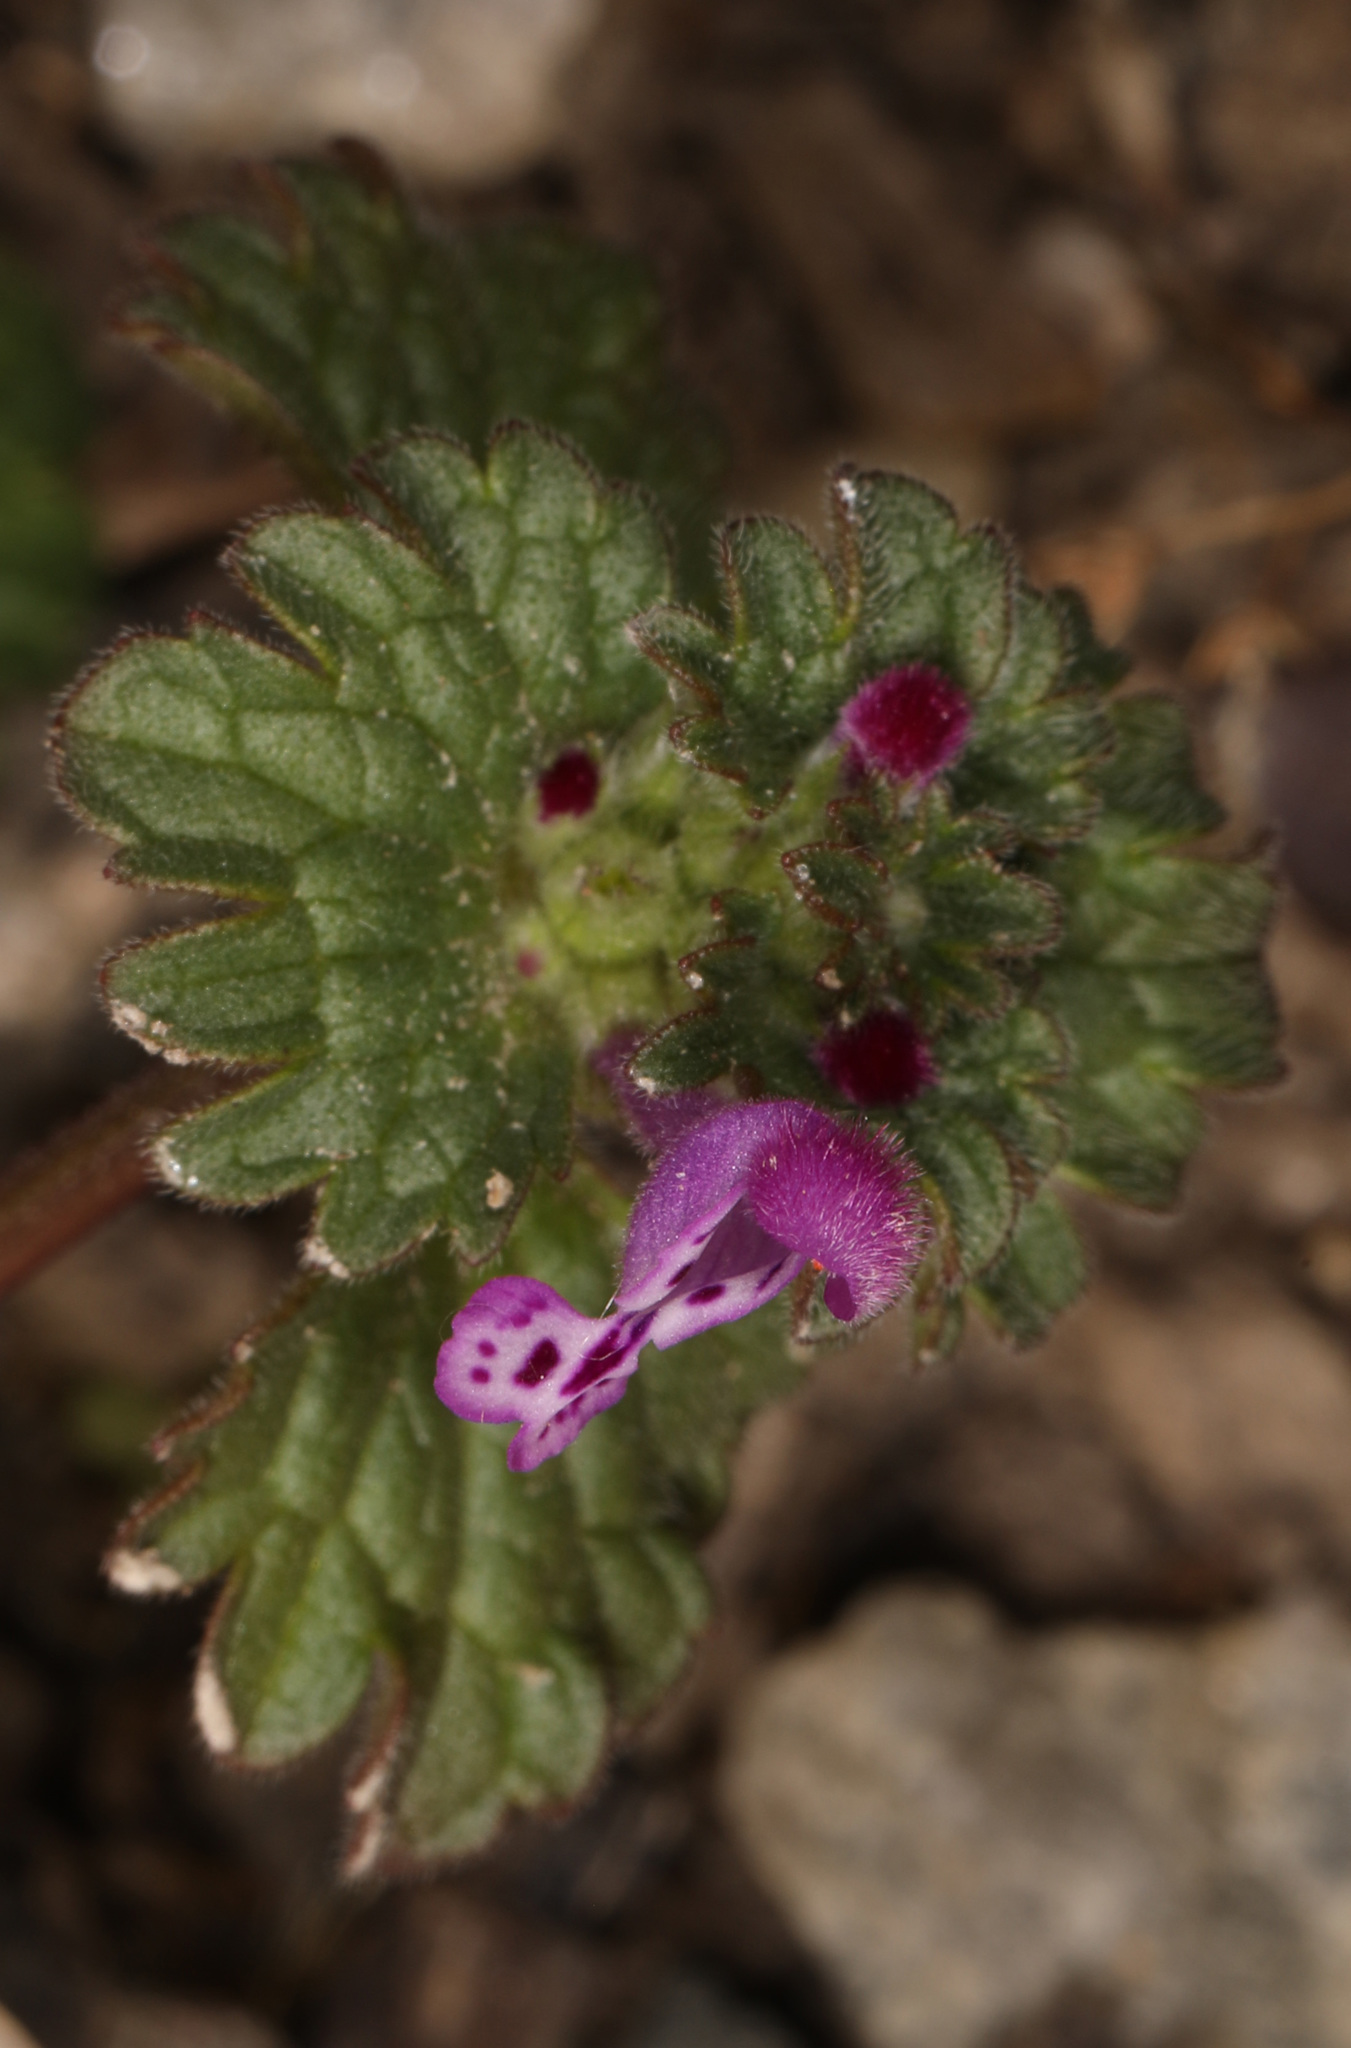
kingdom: Plantae
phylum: Tracheophyta
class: Magnoliopsida
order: Lamiales
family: Lamiaceae
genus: Lamium
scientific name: Lamium amplexicaule
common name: Henbit dead-nettle
